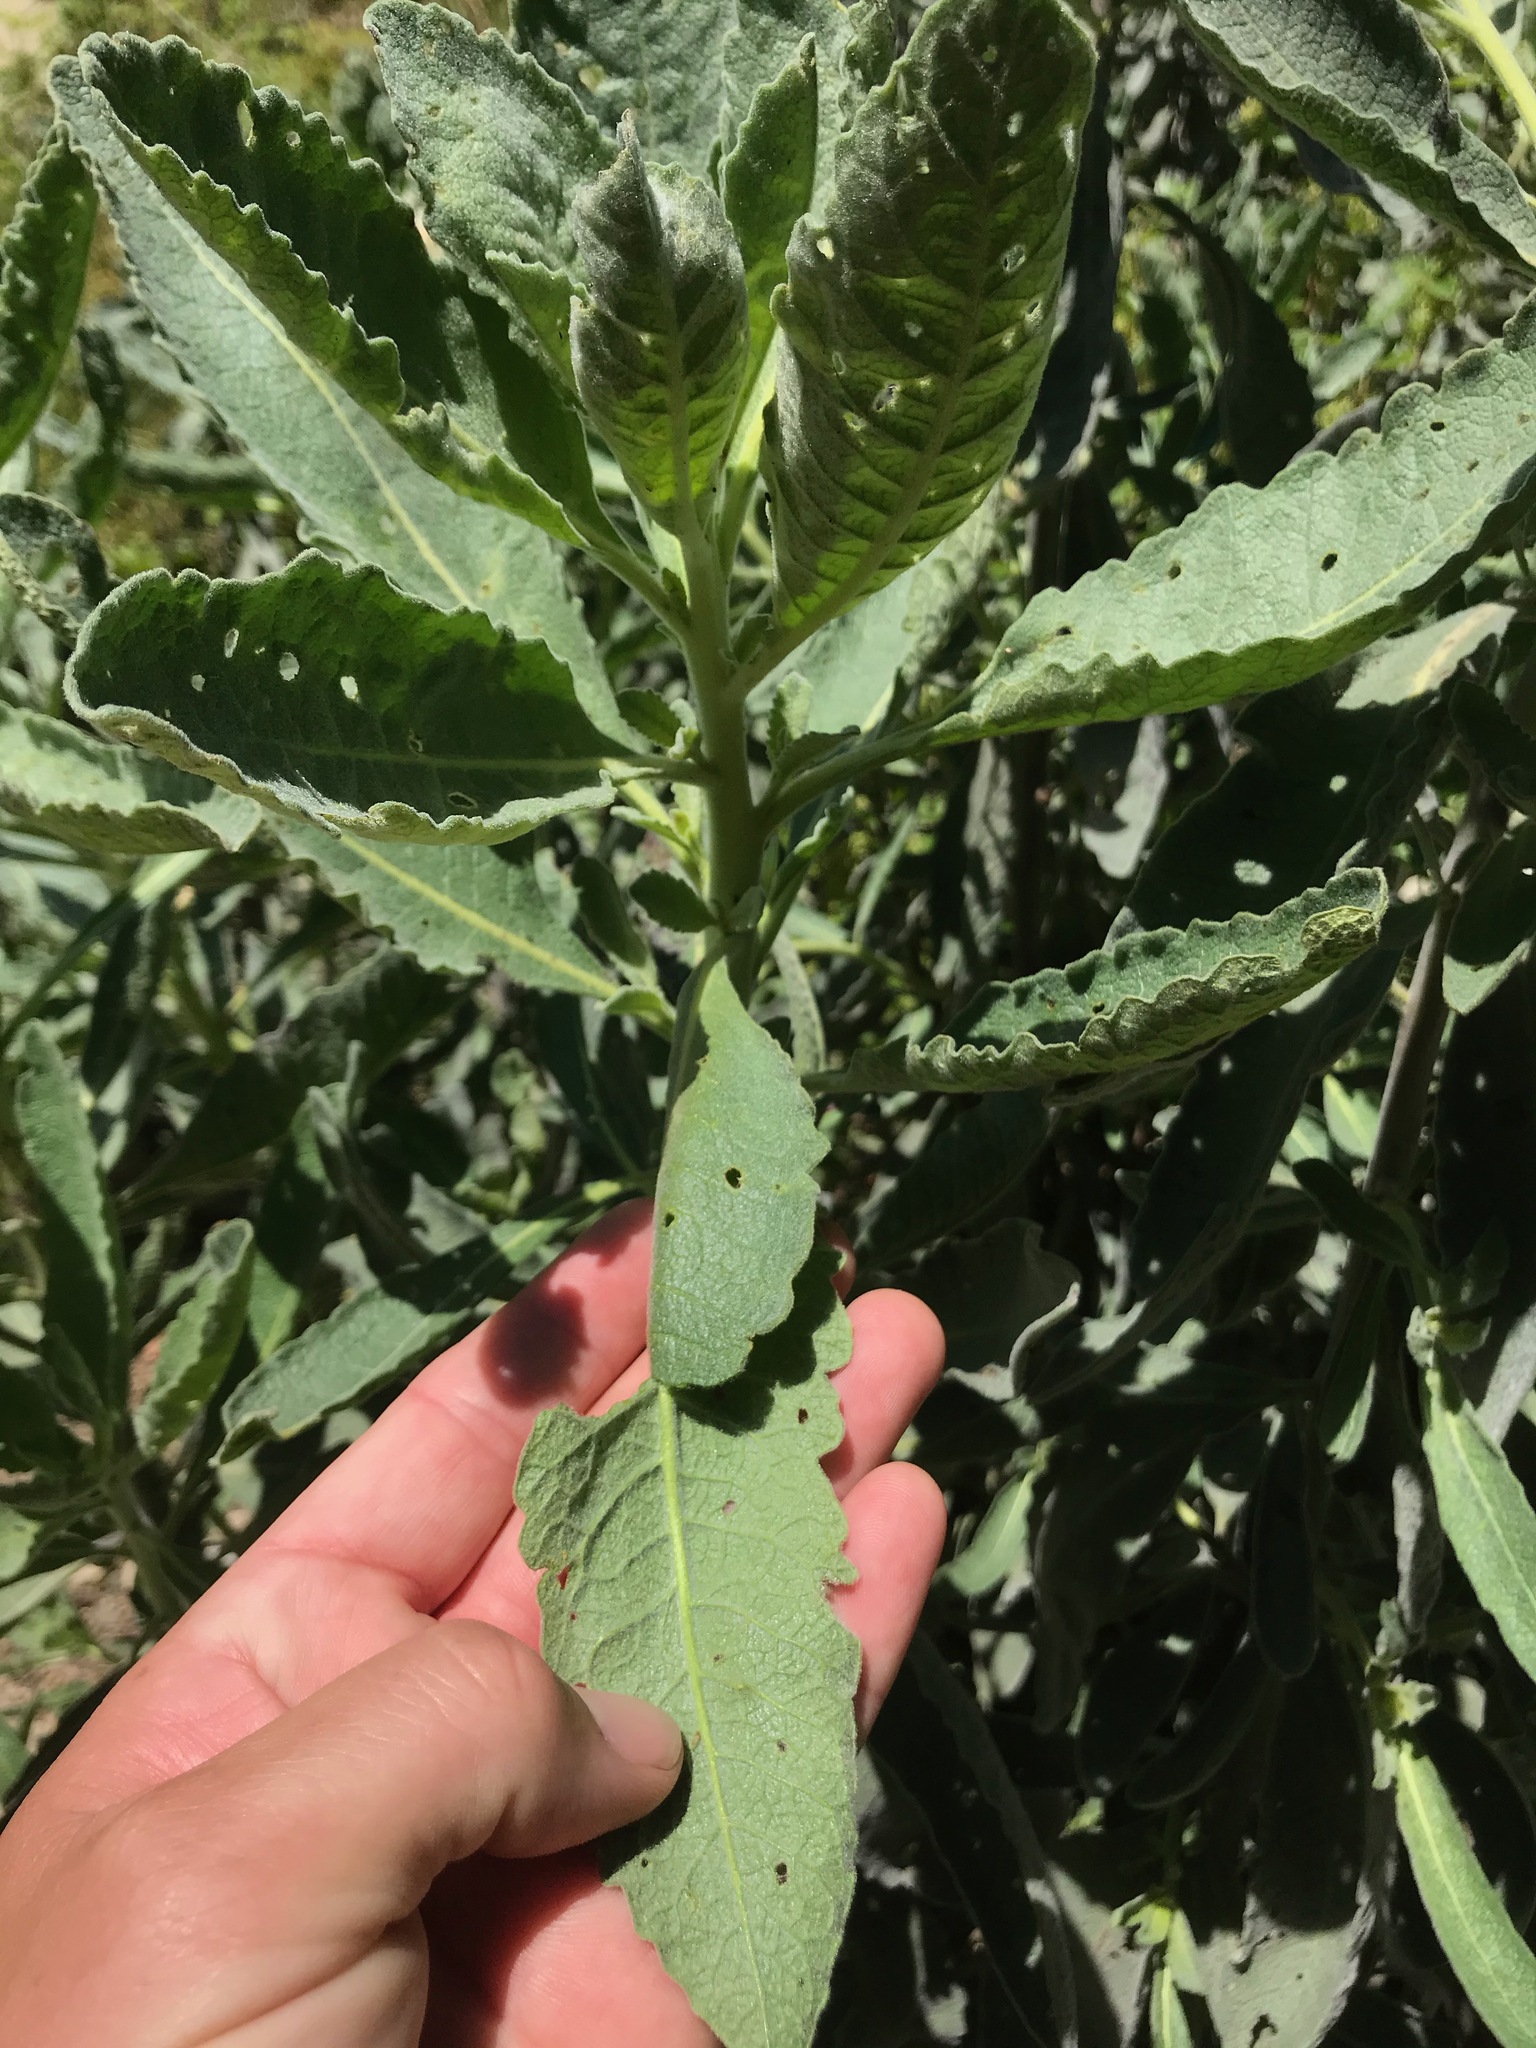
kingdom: Plantae
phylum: Tracheophyta
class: Magnoliopsida
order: Boraginales
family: Namaceae
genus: Eriodictyon
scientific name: Eriodictyon crassifolium
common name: Thick-leaf yerba-santa
